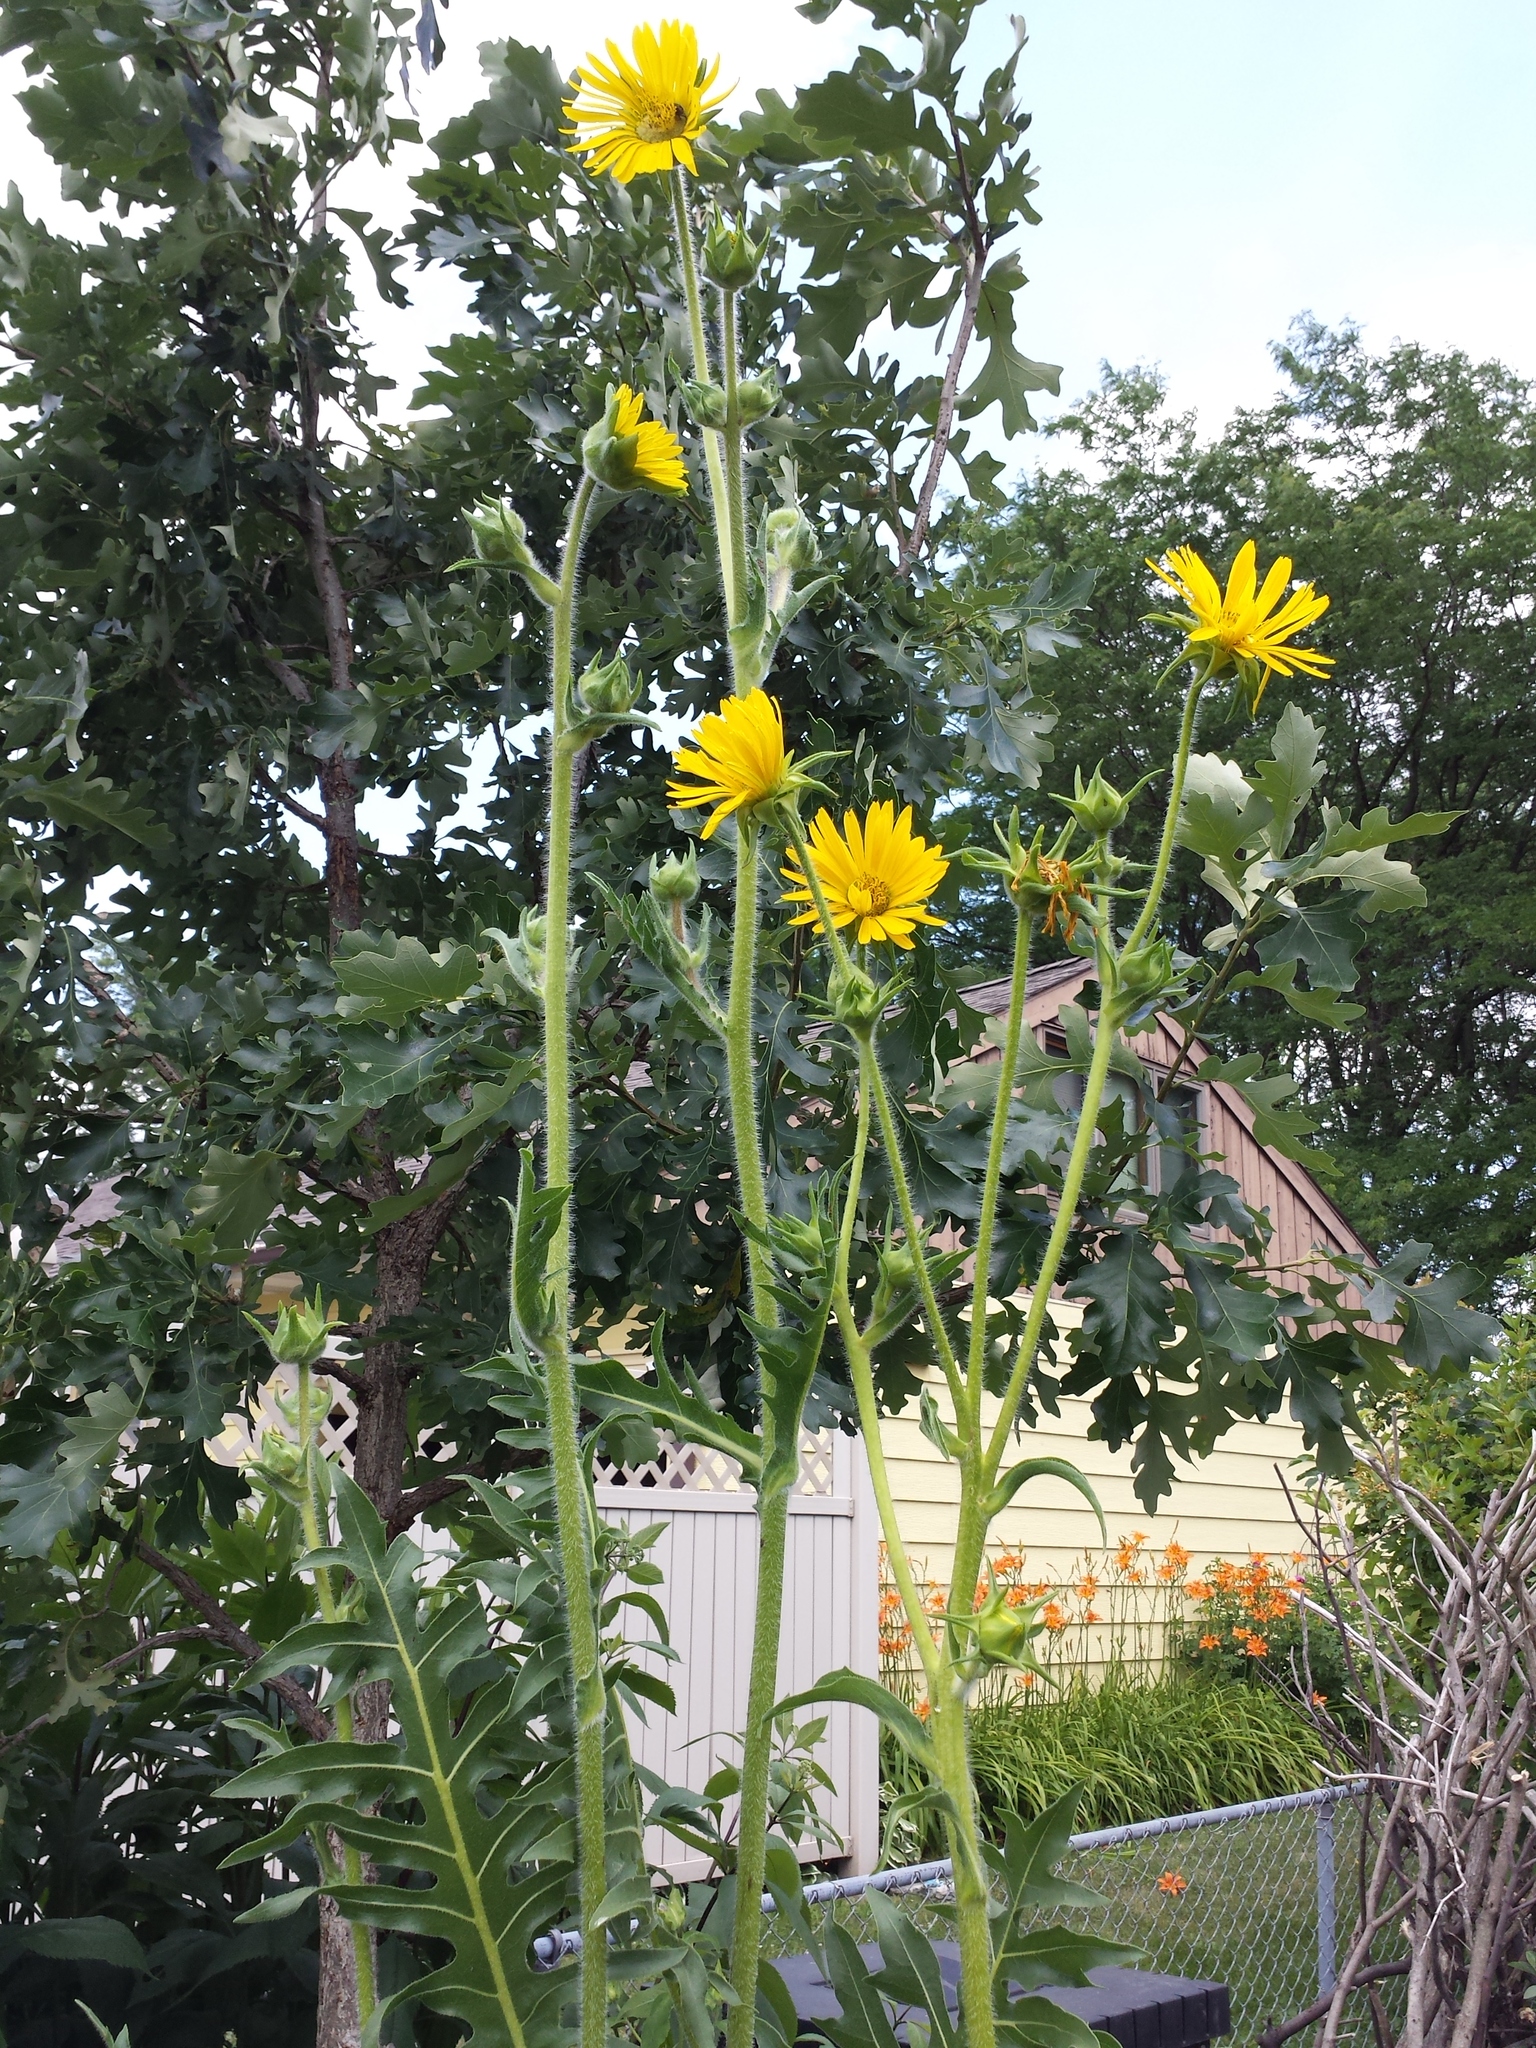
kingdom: Plantae
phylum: Tracheophyta
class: Magnoliopsida
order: Asterales
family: Asteraceae
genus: Silphium
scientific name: Silphium laciniatum
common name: Polarplant
